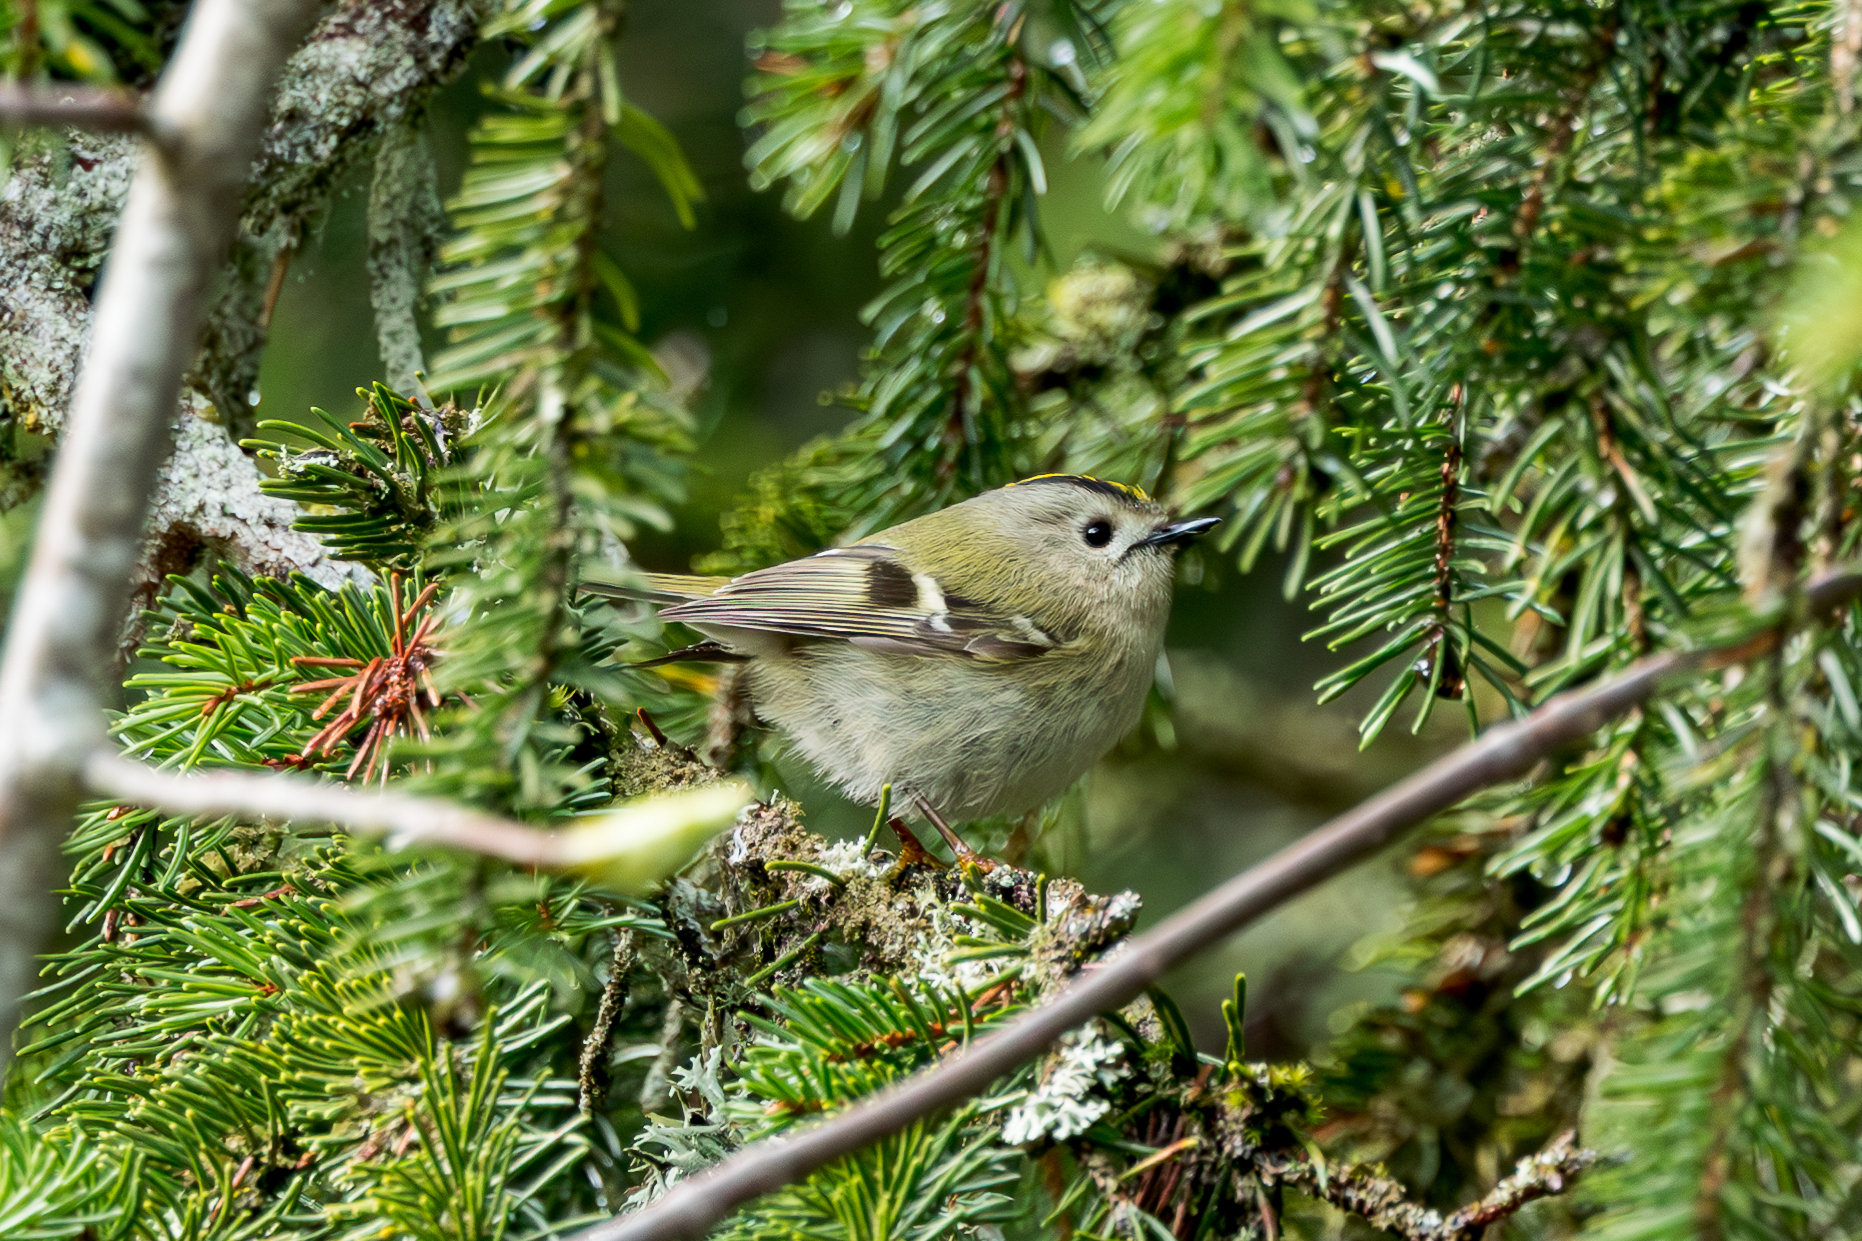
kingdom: Animalia
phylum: Chordata
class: Aves
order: Passeriformes
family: Regulidae
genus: Regulus
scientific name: Regulus regulus
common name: Goldcrest
